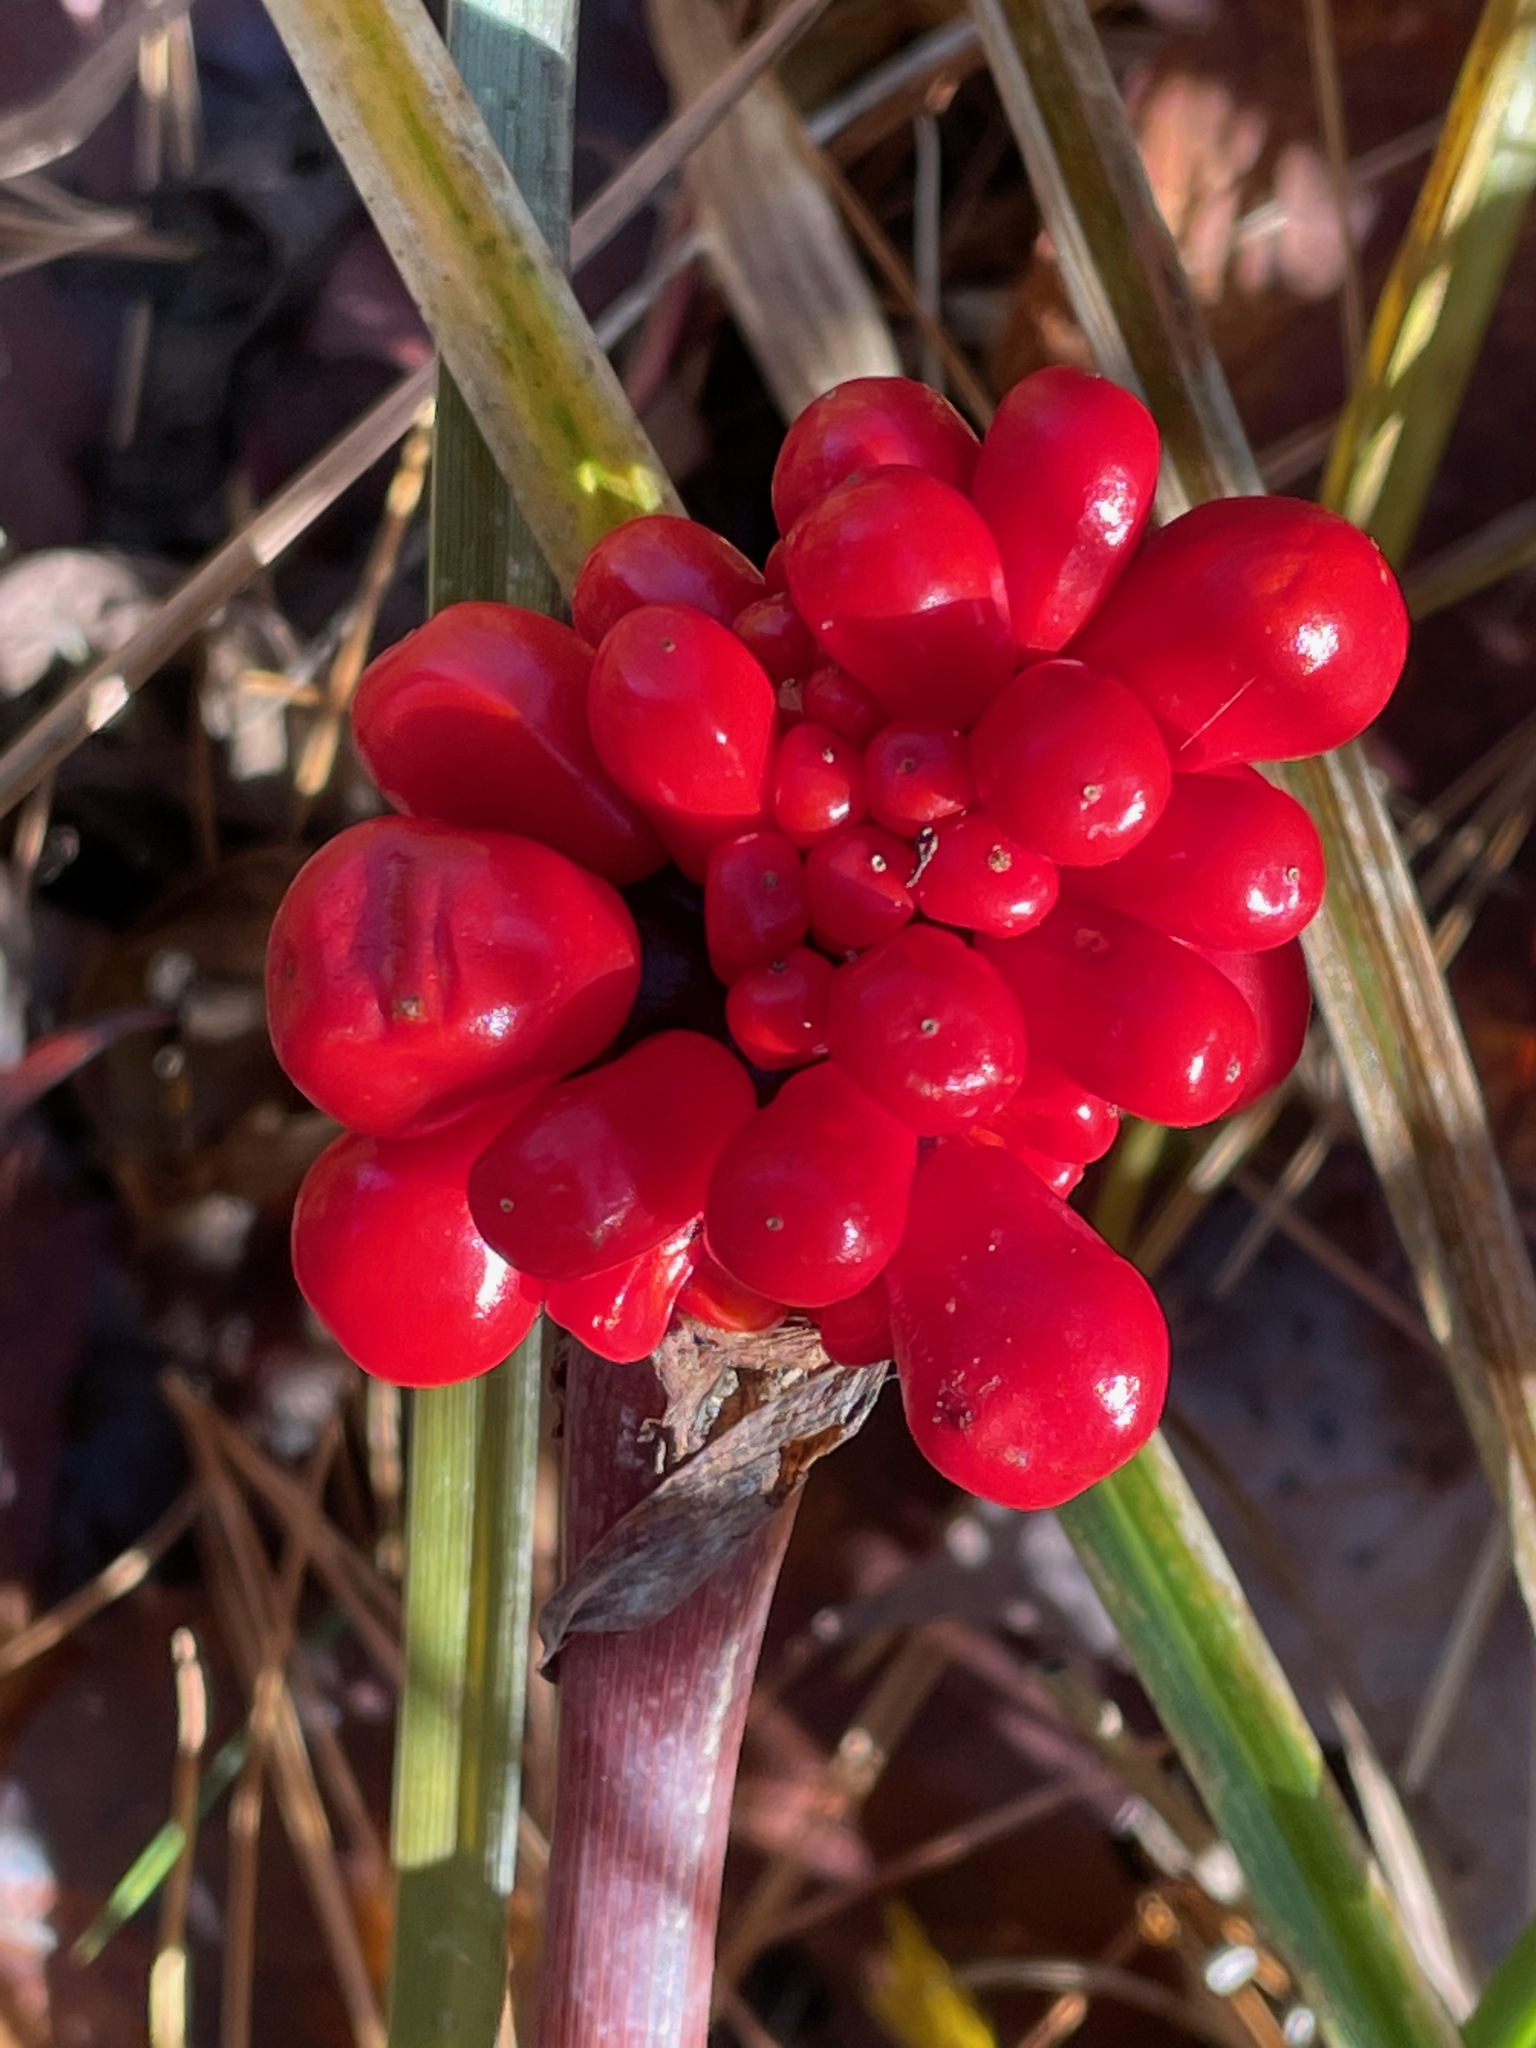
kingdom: Plantae
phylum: Tracheophyta
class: Liliopsida
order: Alismatales
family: Araceae
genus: Arisaema
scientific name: Arisaema triphyllum
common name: Jack-in-the-pulpit
